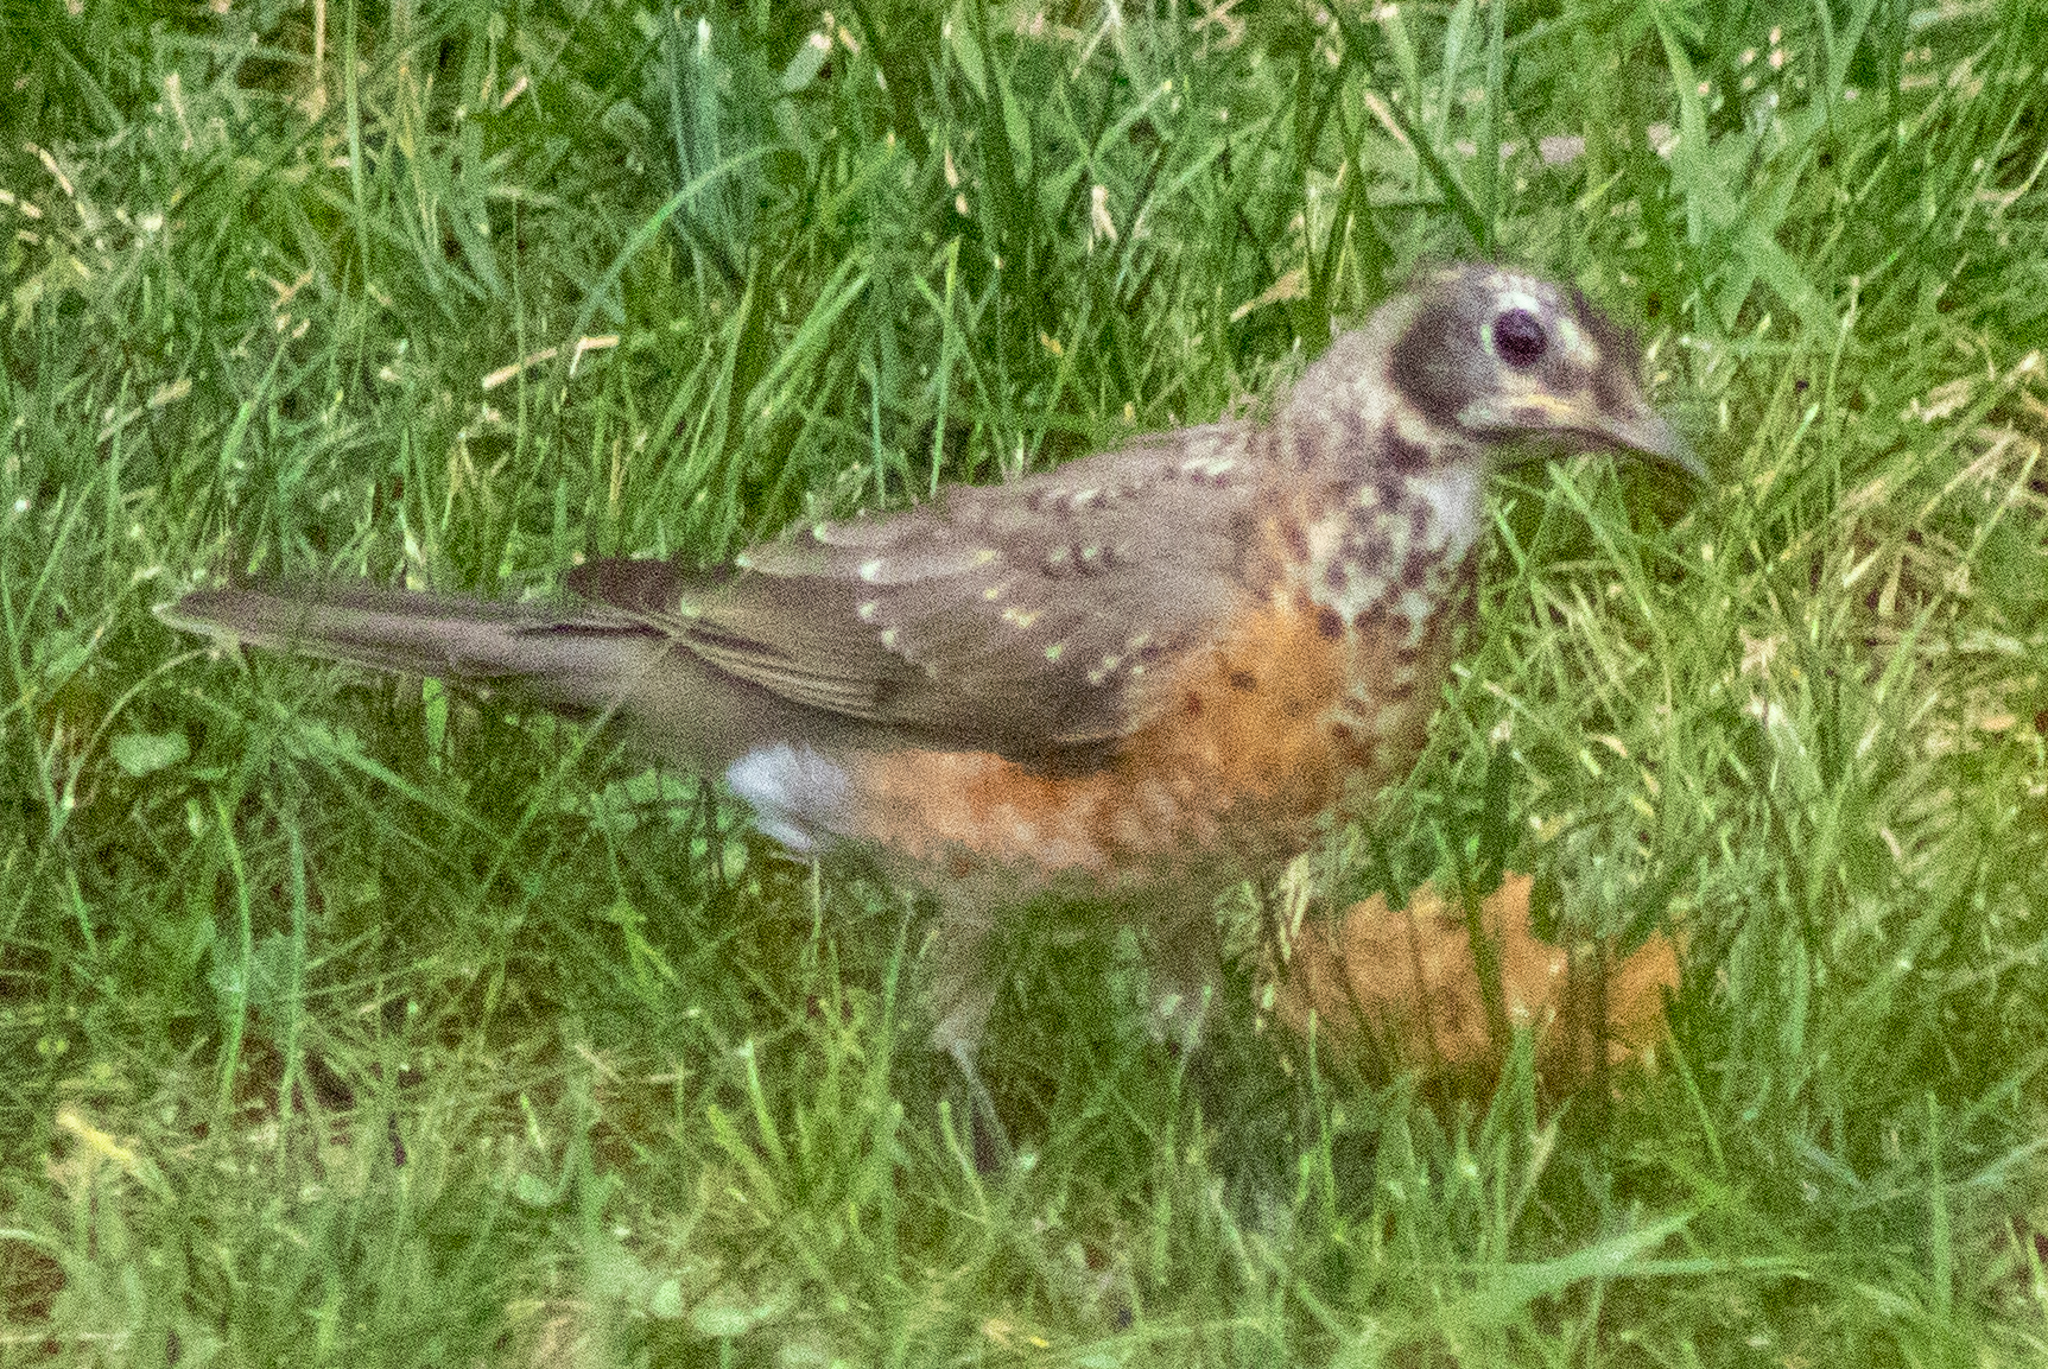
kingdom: Animalia
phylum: Chordata
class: Aves
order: Passeriformes
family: Turdidae
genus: Turdus
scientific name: Turdus migratorius
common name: American robin
